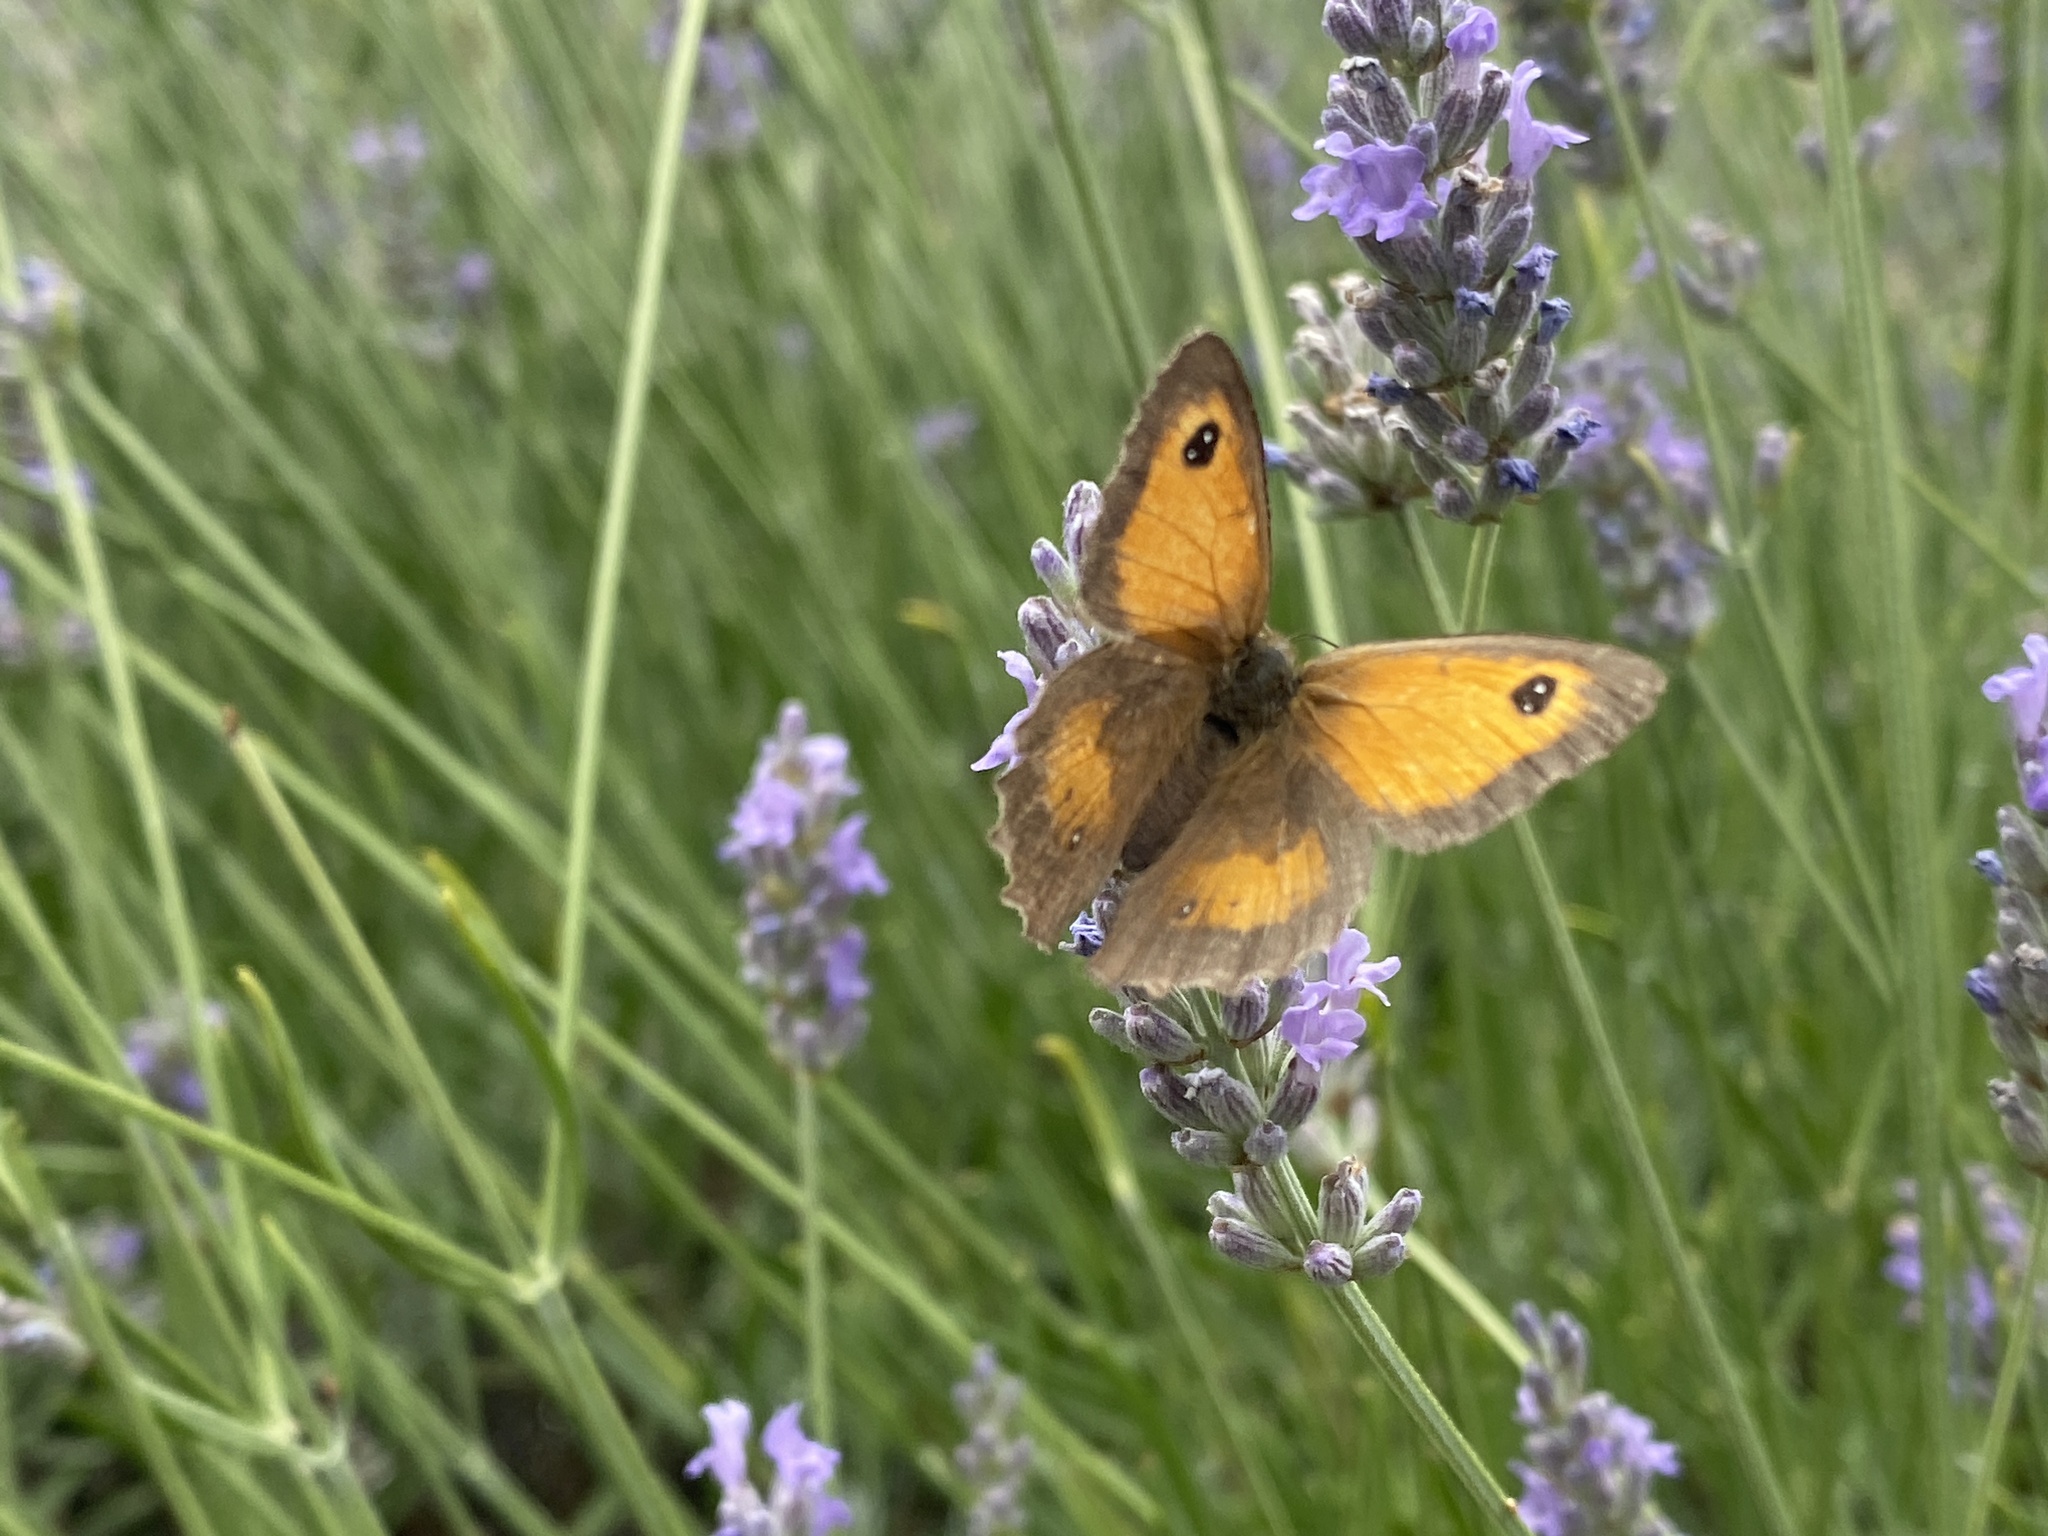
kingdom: Animalia
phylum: Arthropoda
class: Insecta
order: Lepidoptera
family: Nymphalidae
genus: Pyronia
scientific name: Pyronia tithonus
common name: Gatekeeper
